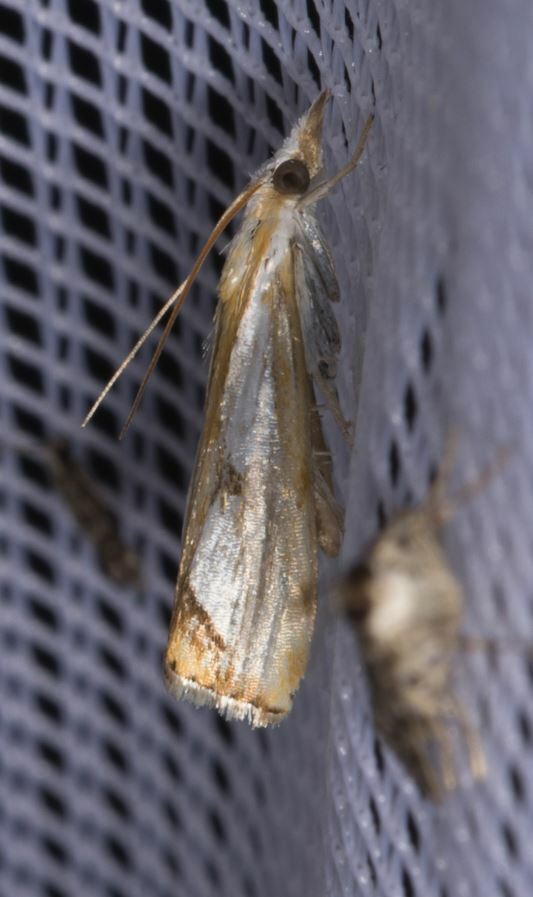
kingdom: Animalia
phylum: Arthropoda
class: Insecta
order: Lepidoptera
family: Crambidae
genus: Catoptria
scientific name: Catoptria pinella
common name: Pearl grass-veneer
